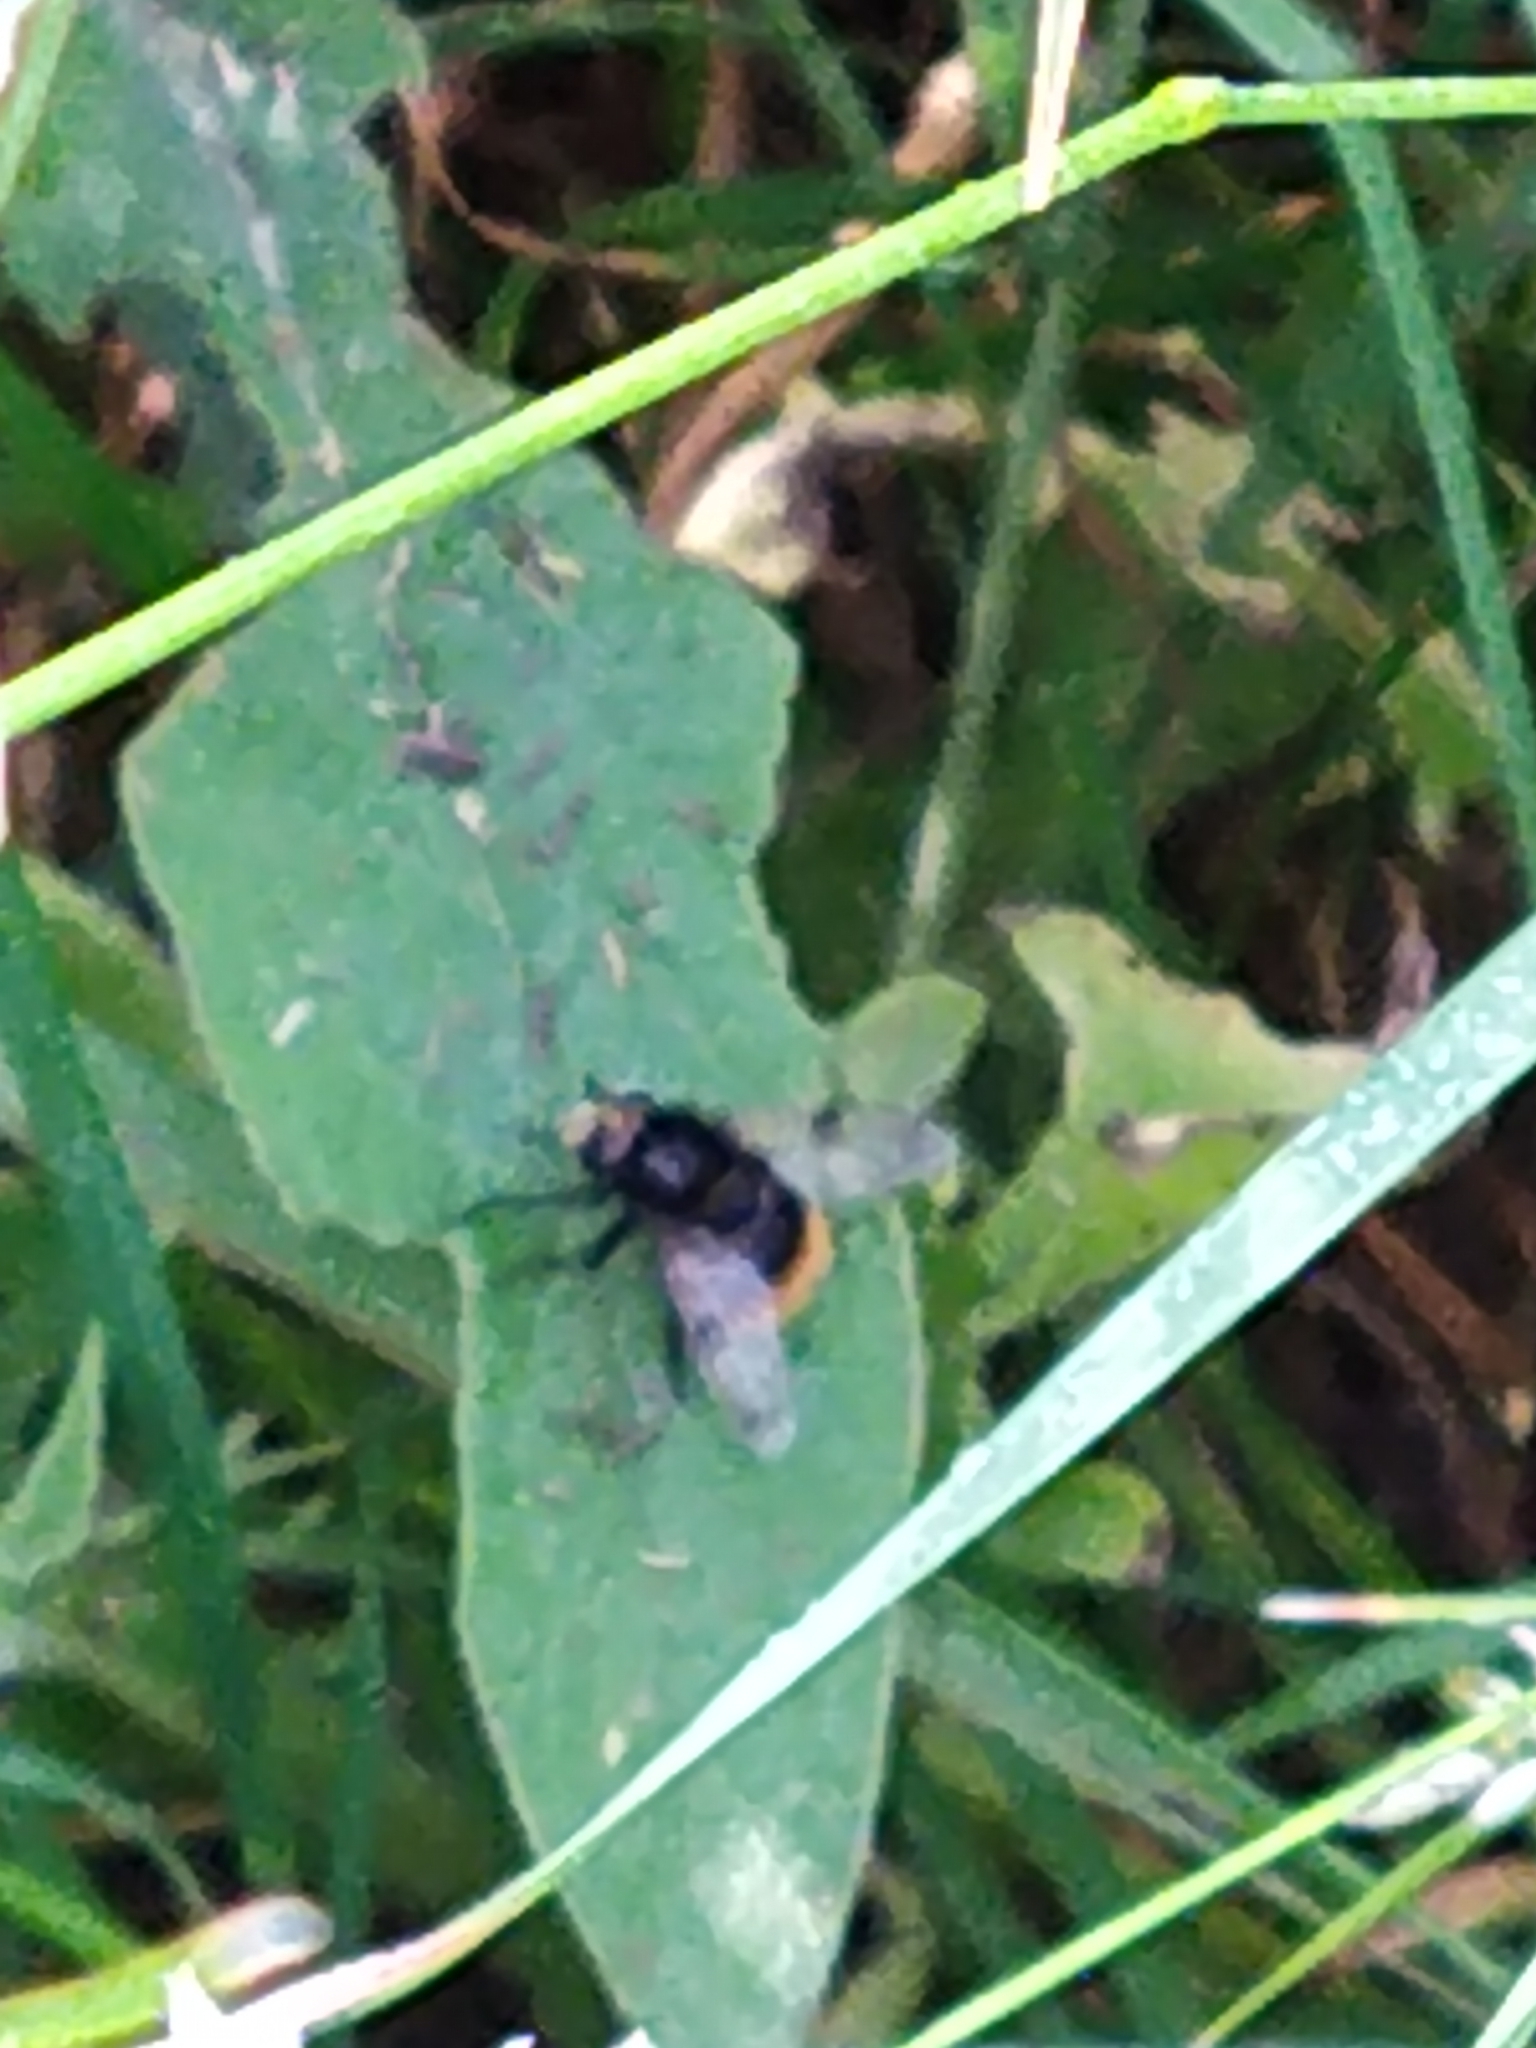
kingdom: Animalia
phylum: Arthropoda
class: Insecta
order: Diptera
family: Syrphidae
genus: Volucella
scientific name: Volucella bombylans
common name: Bumble bee hover fly
